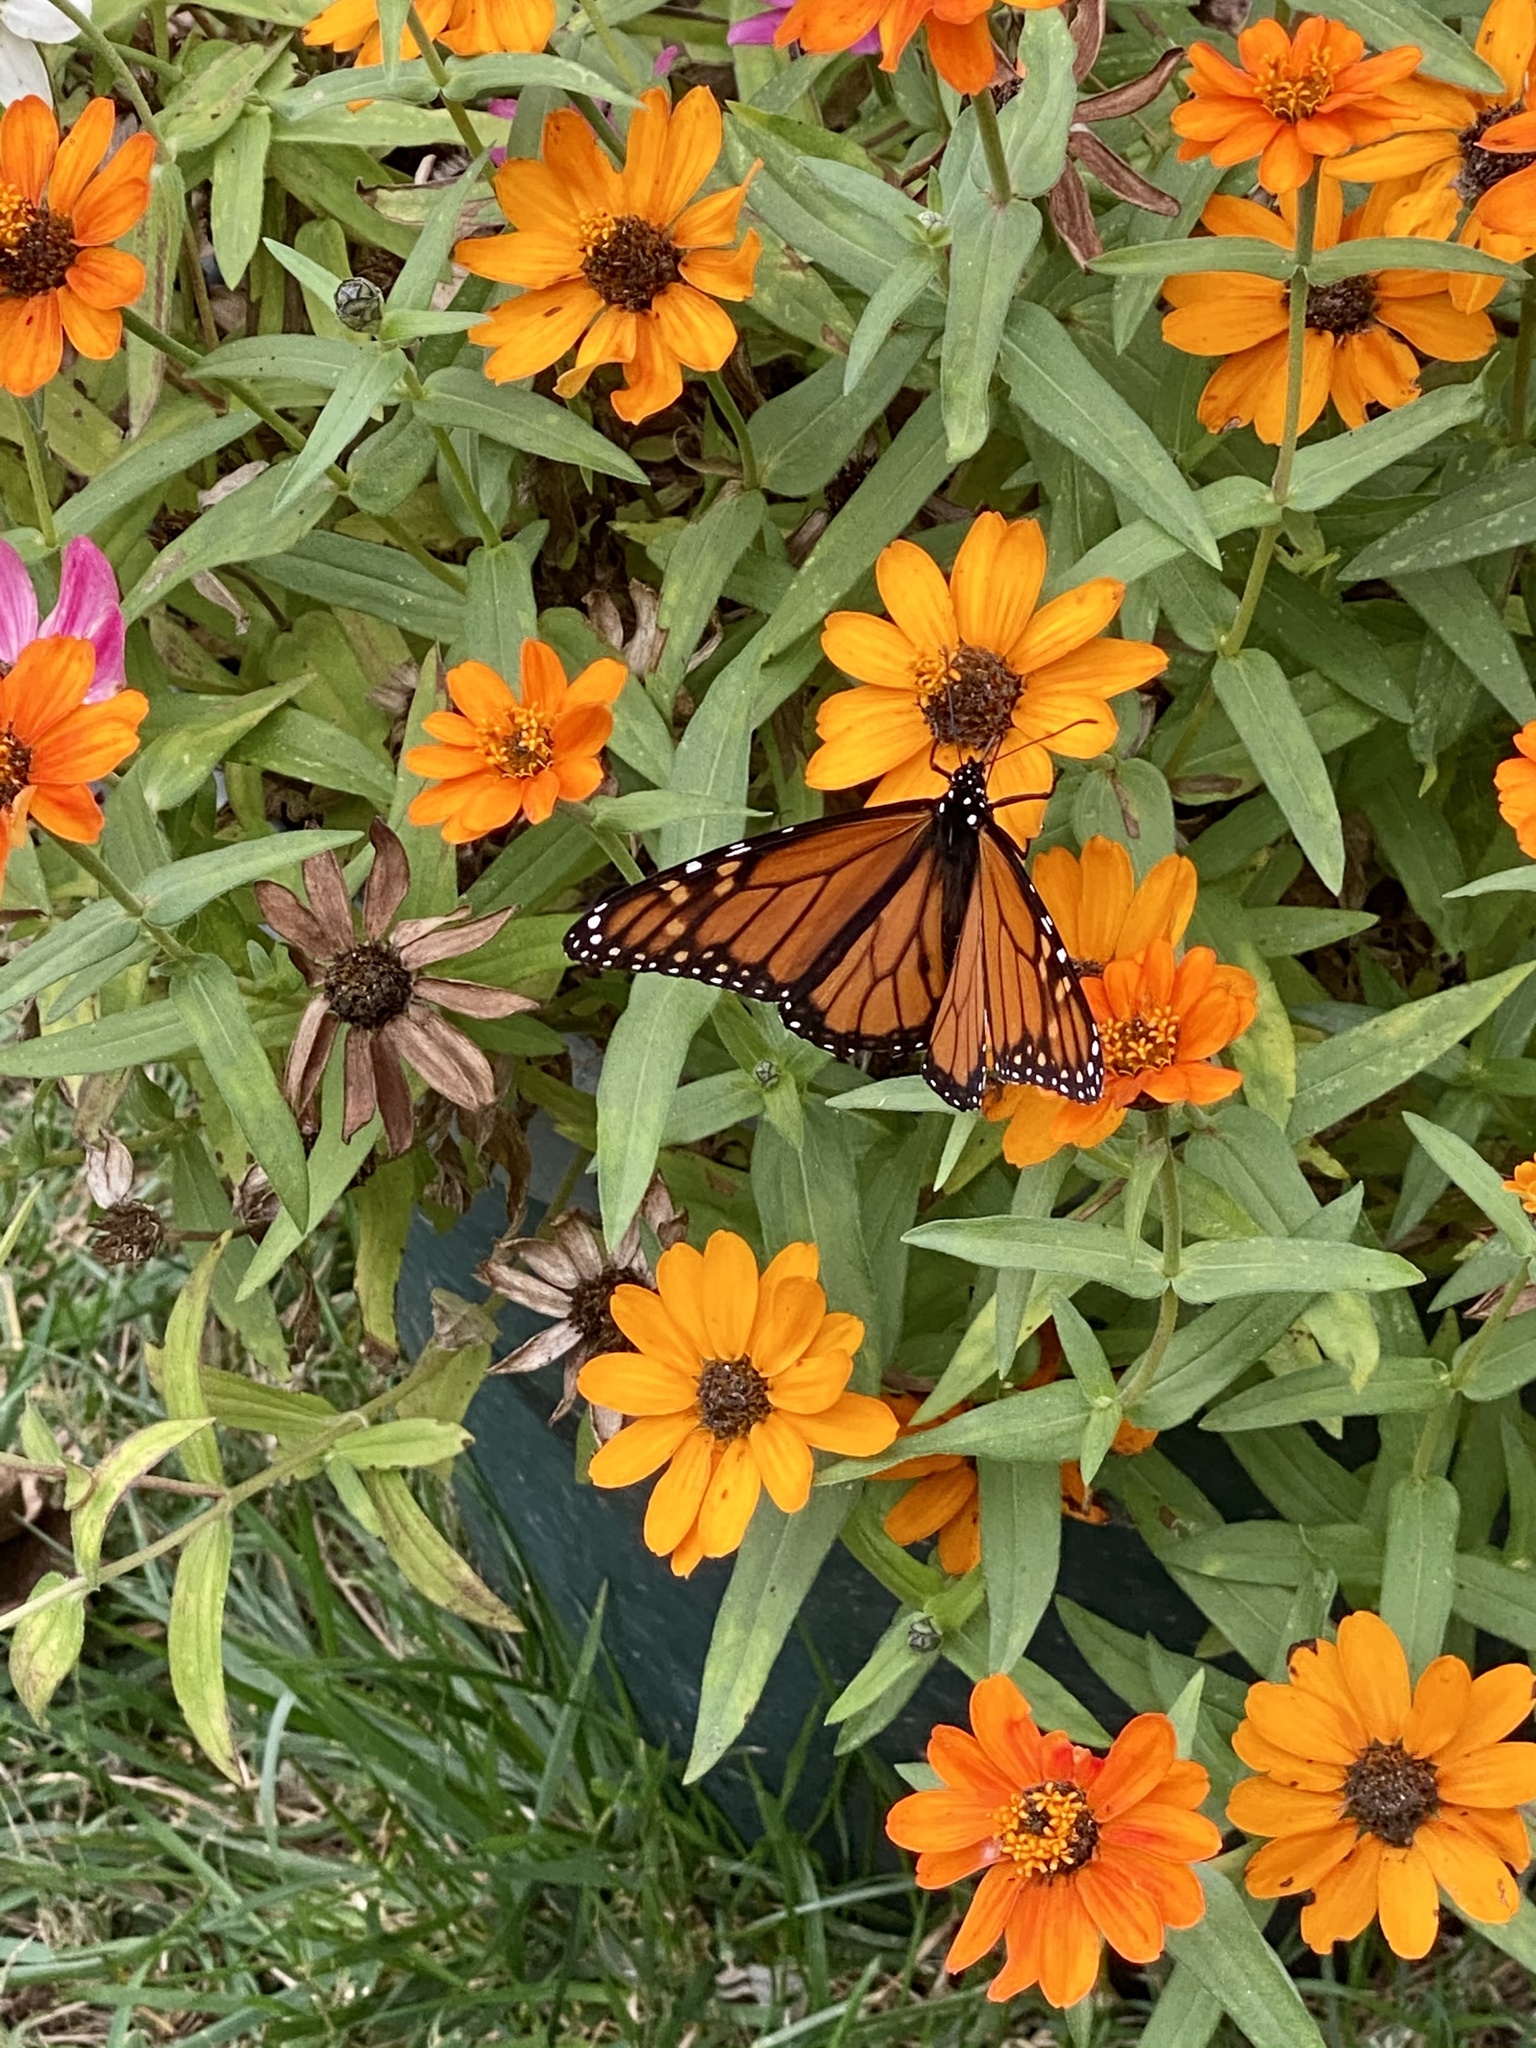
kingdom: Animalia
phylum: Arthropoda
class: Insecta
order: Lepidoptera
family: Nymphalidae
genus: Danaus
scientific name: Danaus plexippus
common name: Monarch
